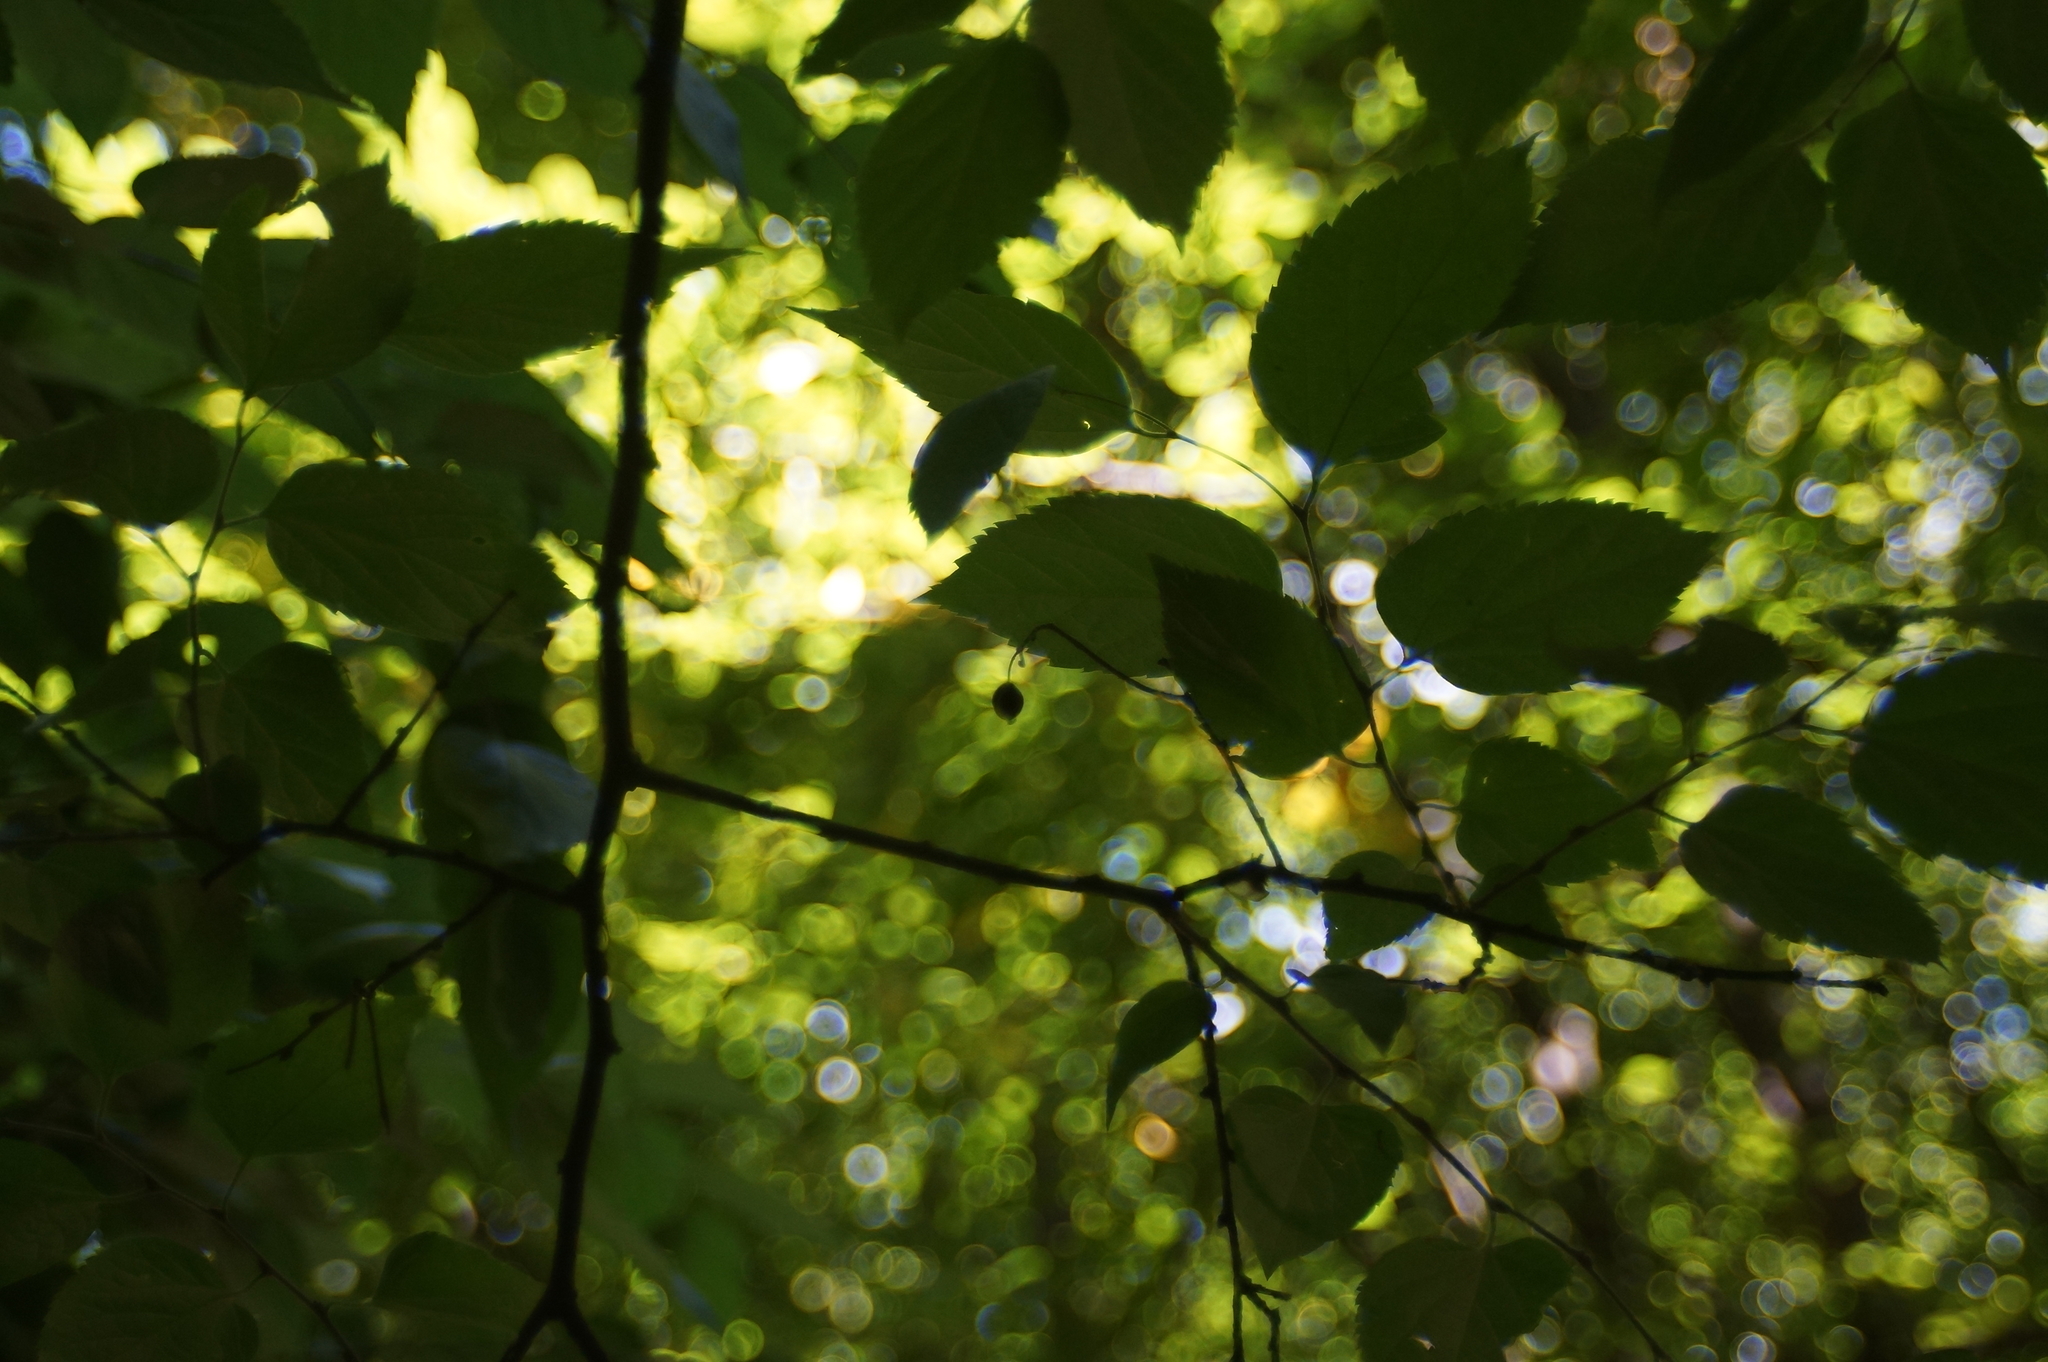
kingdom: Plantae
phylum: Tracheophyta
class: Magnoliopsida
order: Rosales
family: Cannabaceae
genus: Celtis
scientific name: Celtis occidentalis
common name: Common hackberry
